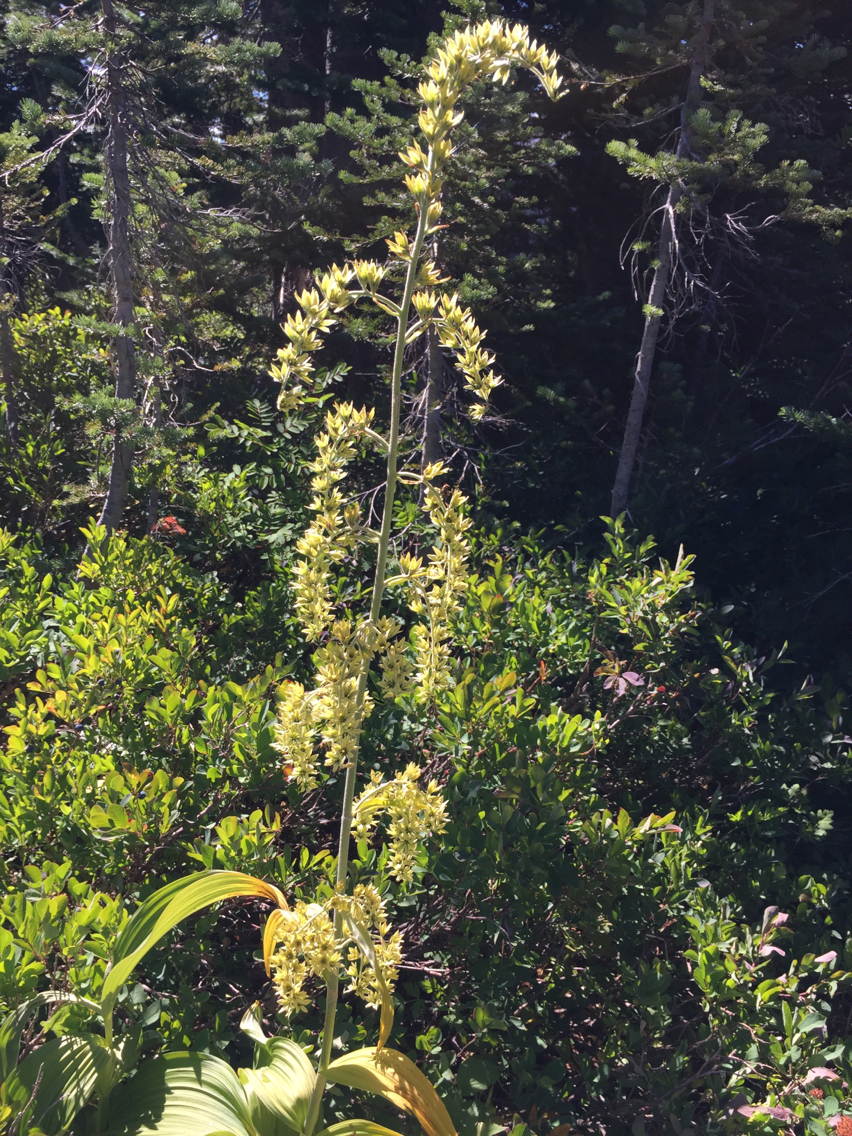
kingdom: Plantae
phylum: Tracheophyta
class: Liliopsida
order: Liliales
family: Melanthiaceae
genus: Veratrum
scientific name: Veratrum viride
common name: American false hellebore
